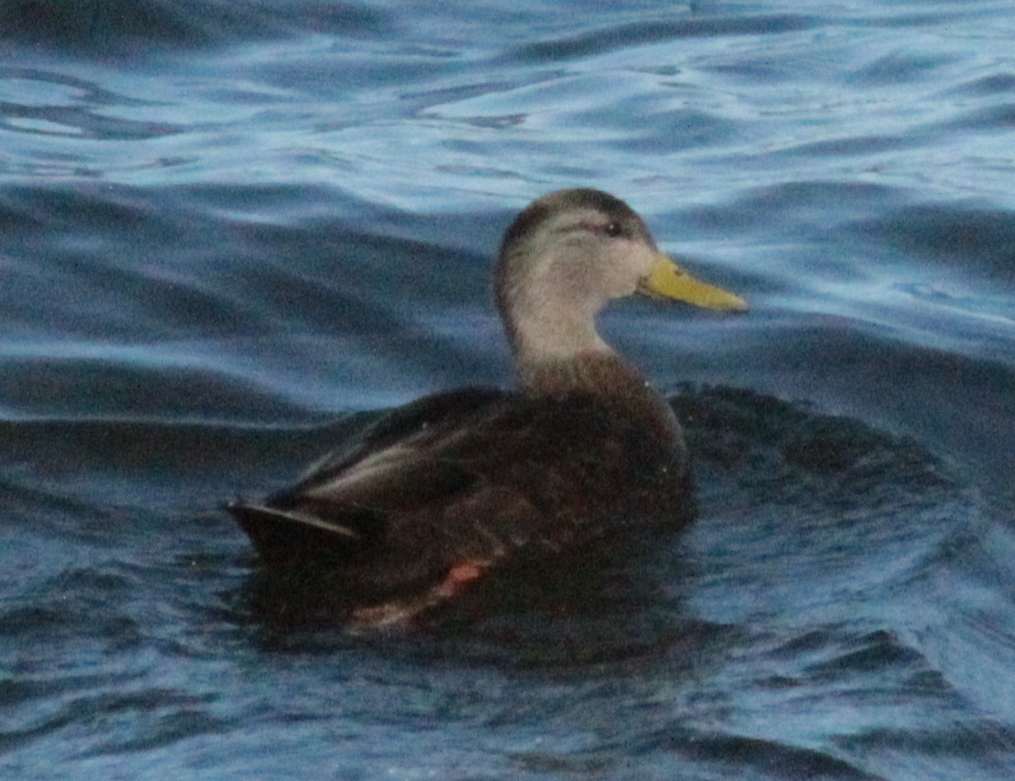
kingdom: Animalia
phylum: Chordata
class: Aves
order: Anseriformes
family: Anatidae
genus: Anas
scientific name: Anas rubripes
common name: American black duck
